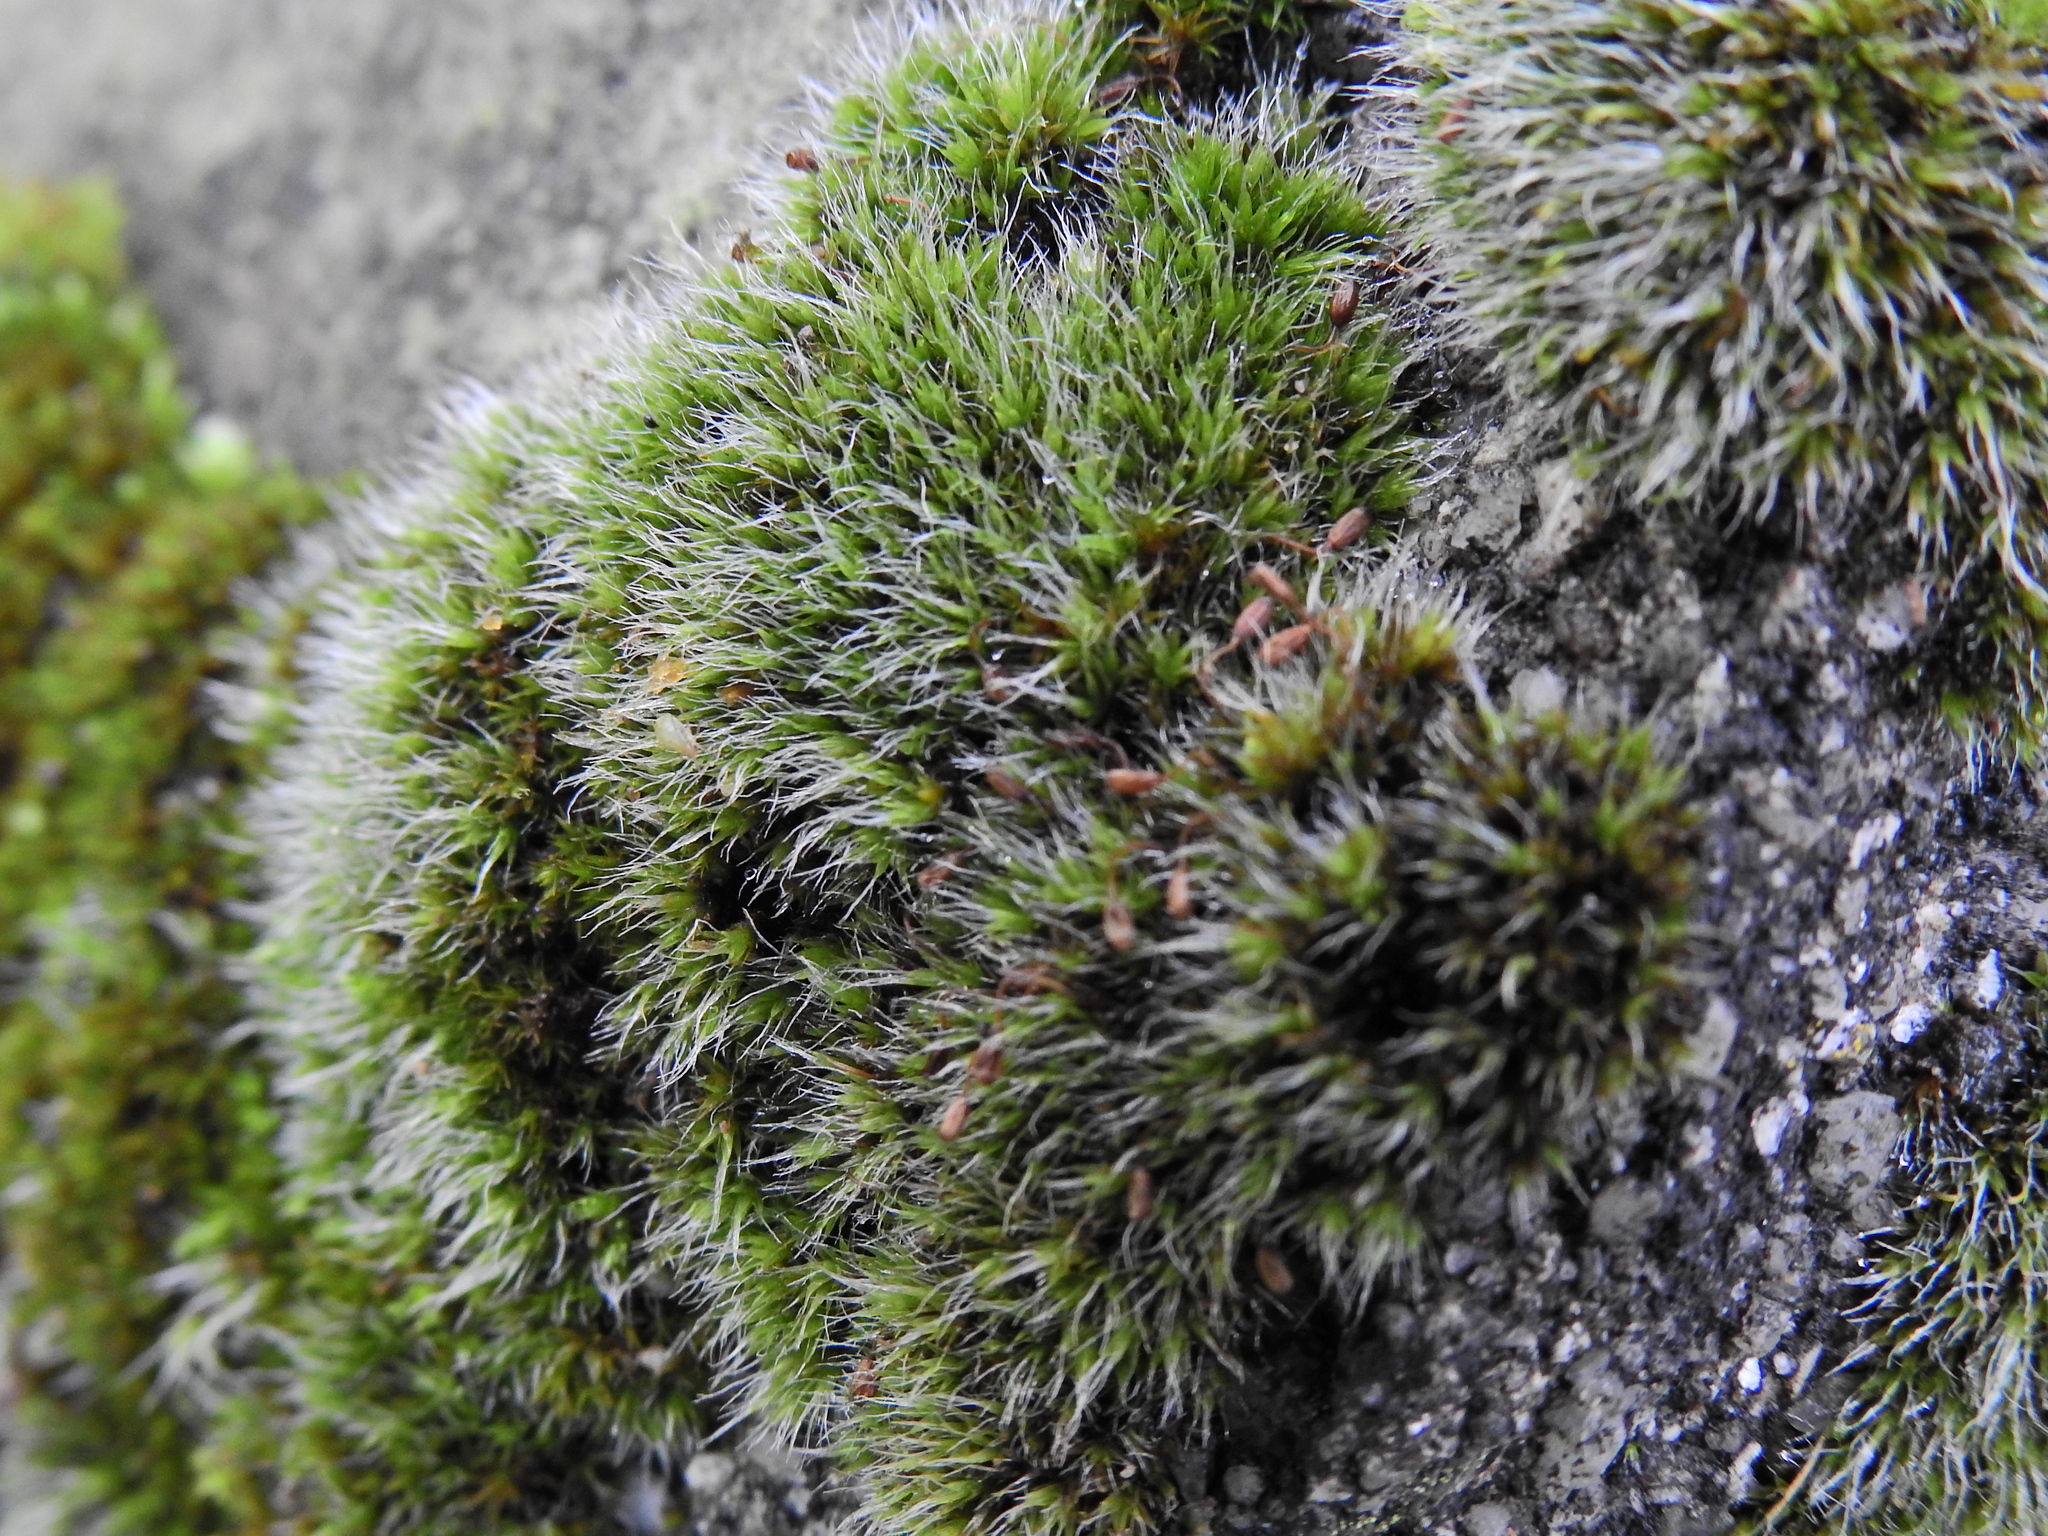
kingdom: Plantae
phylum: Bryophyta
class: Bryopsida
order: Grimmiales
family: Grimmiaceae
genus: Grimmia
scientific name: Grimmia pulvinata
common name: Grey-cushioned grimmia
